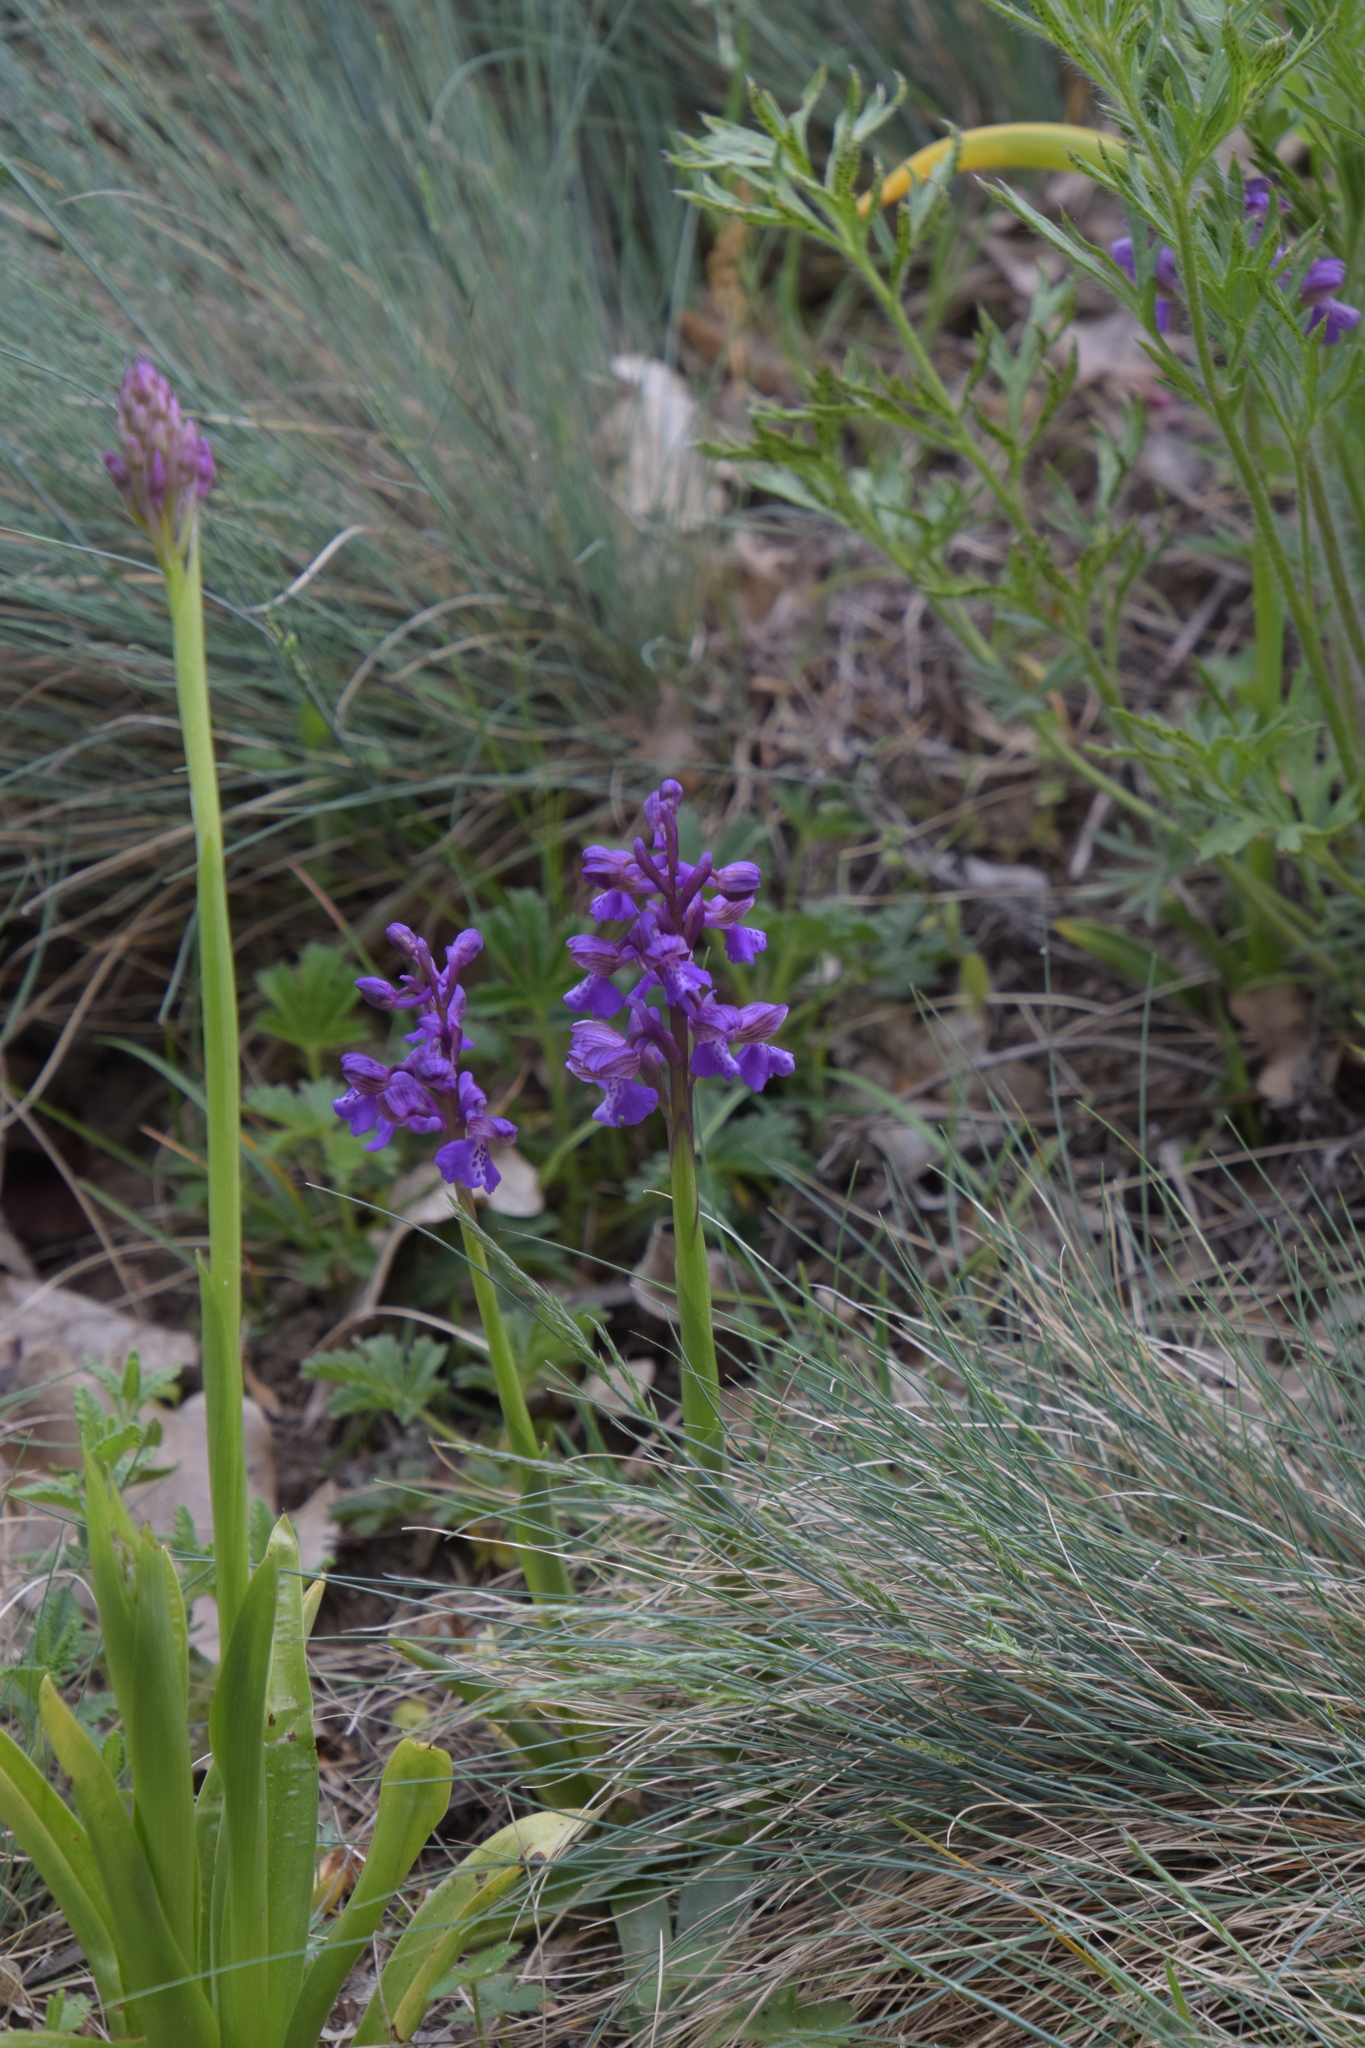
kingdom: Plantae
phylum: Tracheophyta
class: Liliopsida
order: Asparagales
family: Orchidaceae
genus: Anacamptis
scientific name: Anacamptis morio
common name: Green-winged orchid
